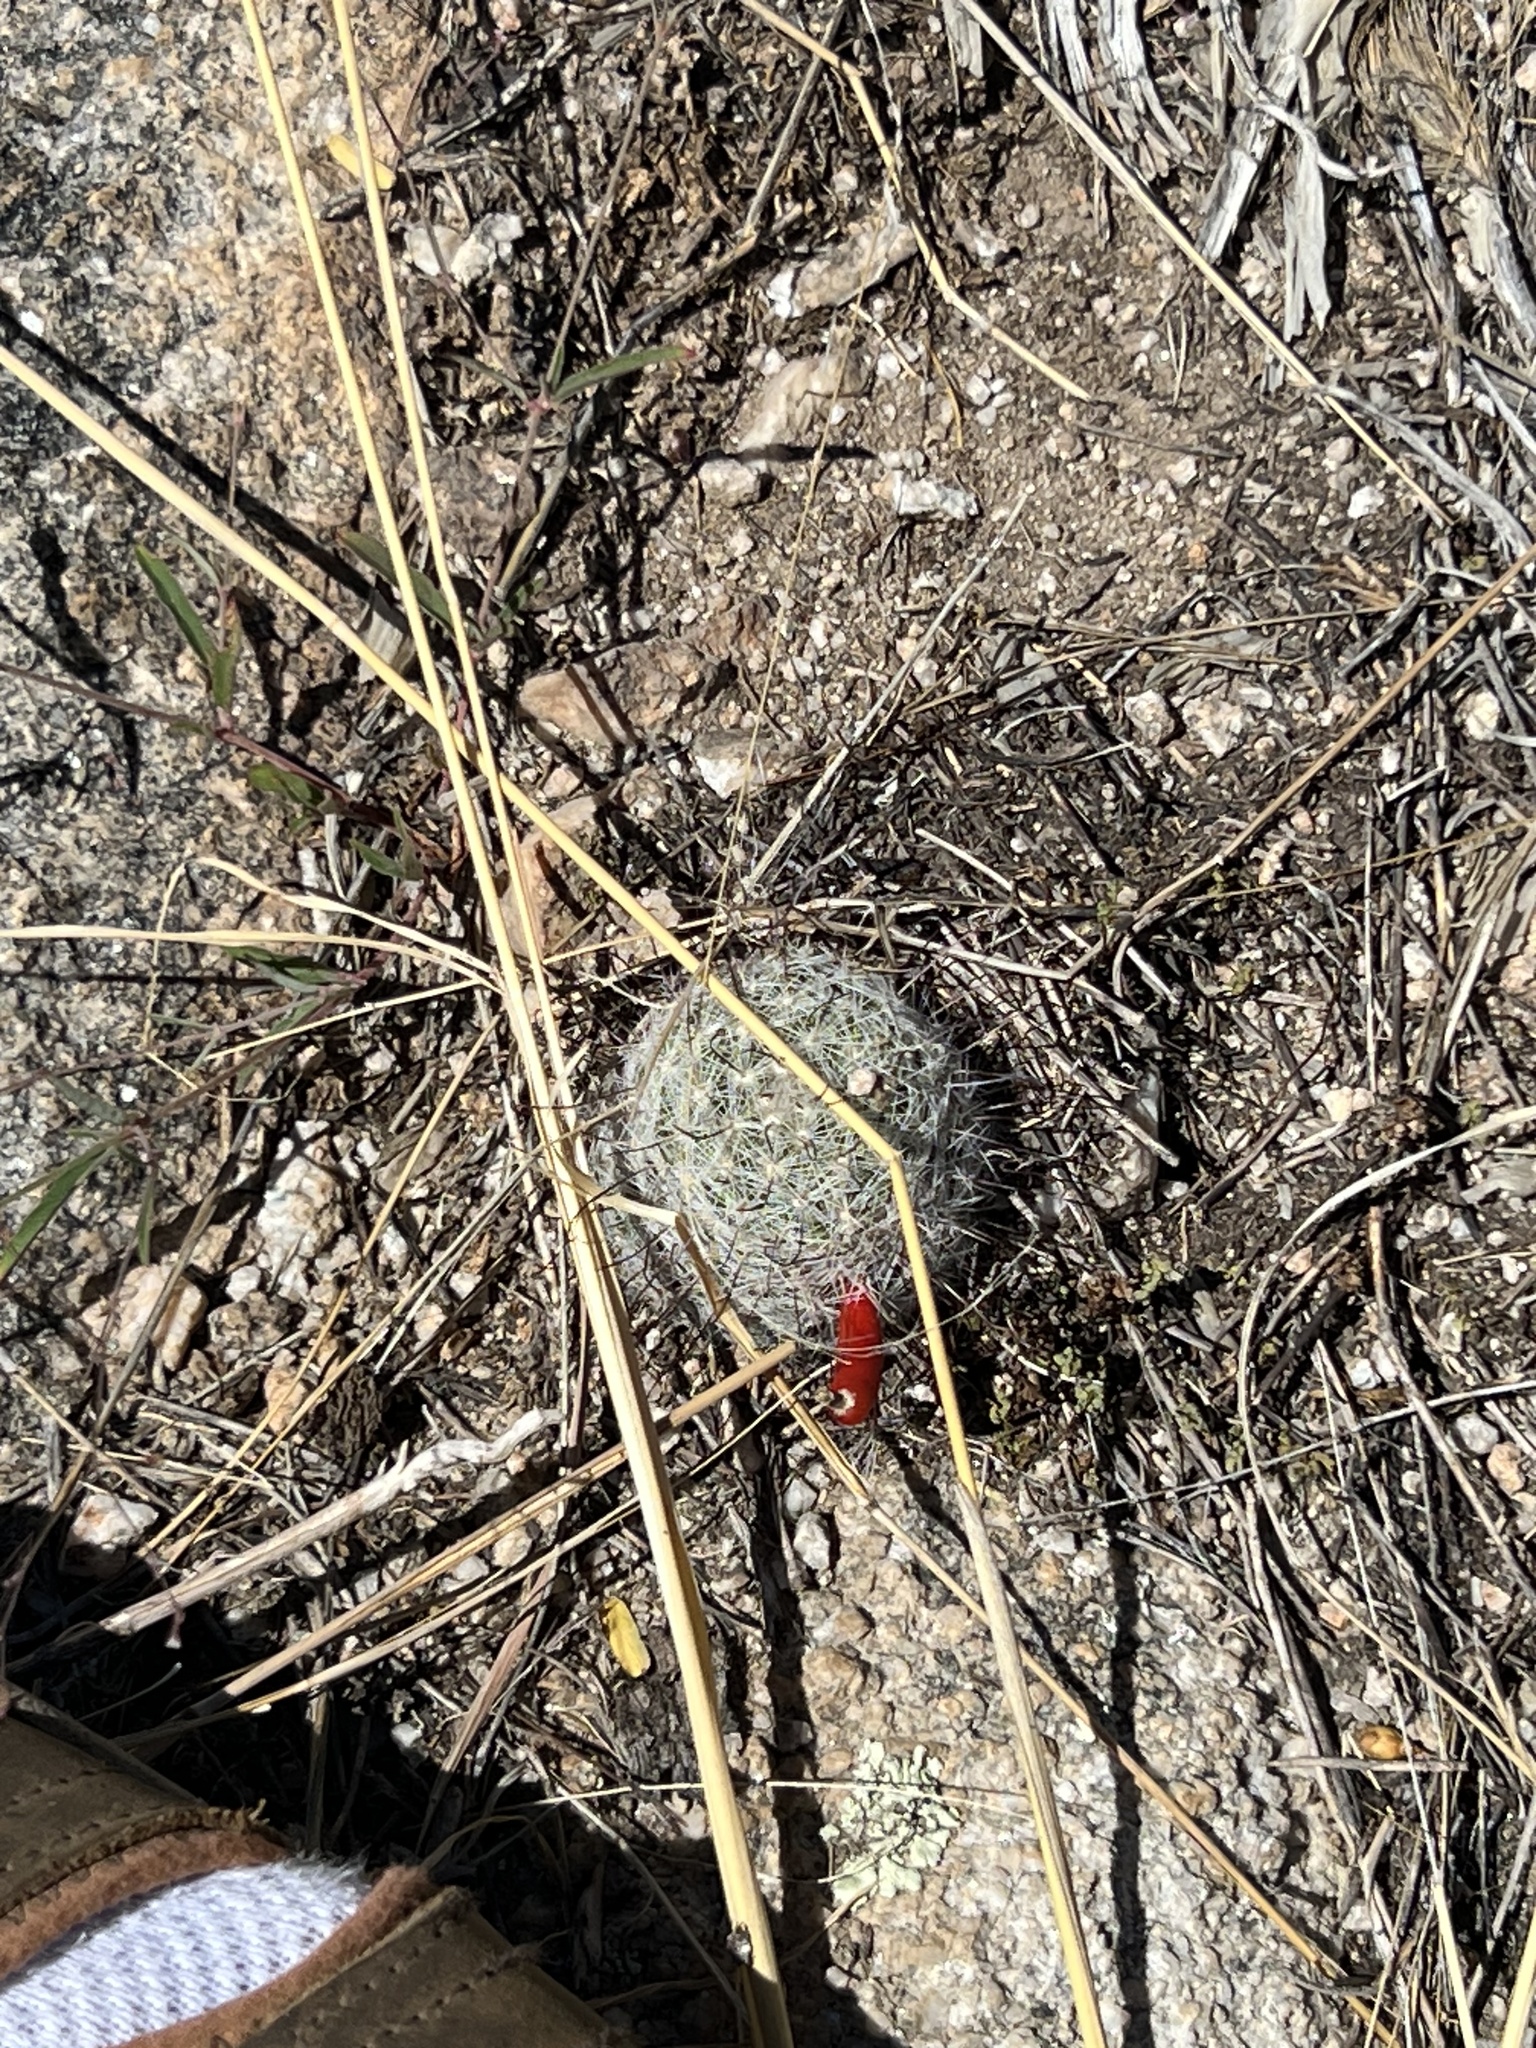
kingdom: Plantae
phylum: Tracheophyta
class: Magnoliopsida
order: Caryophyllales
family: Cactaceae
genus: Cochemiea
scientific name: Cochemiea grahamii
